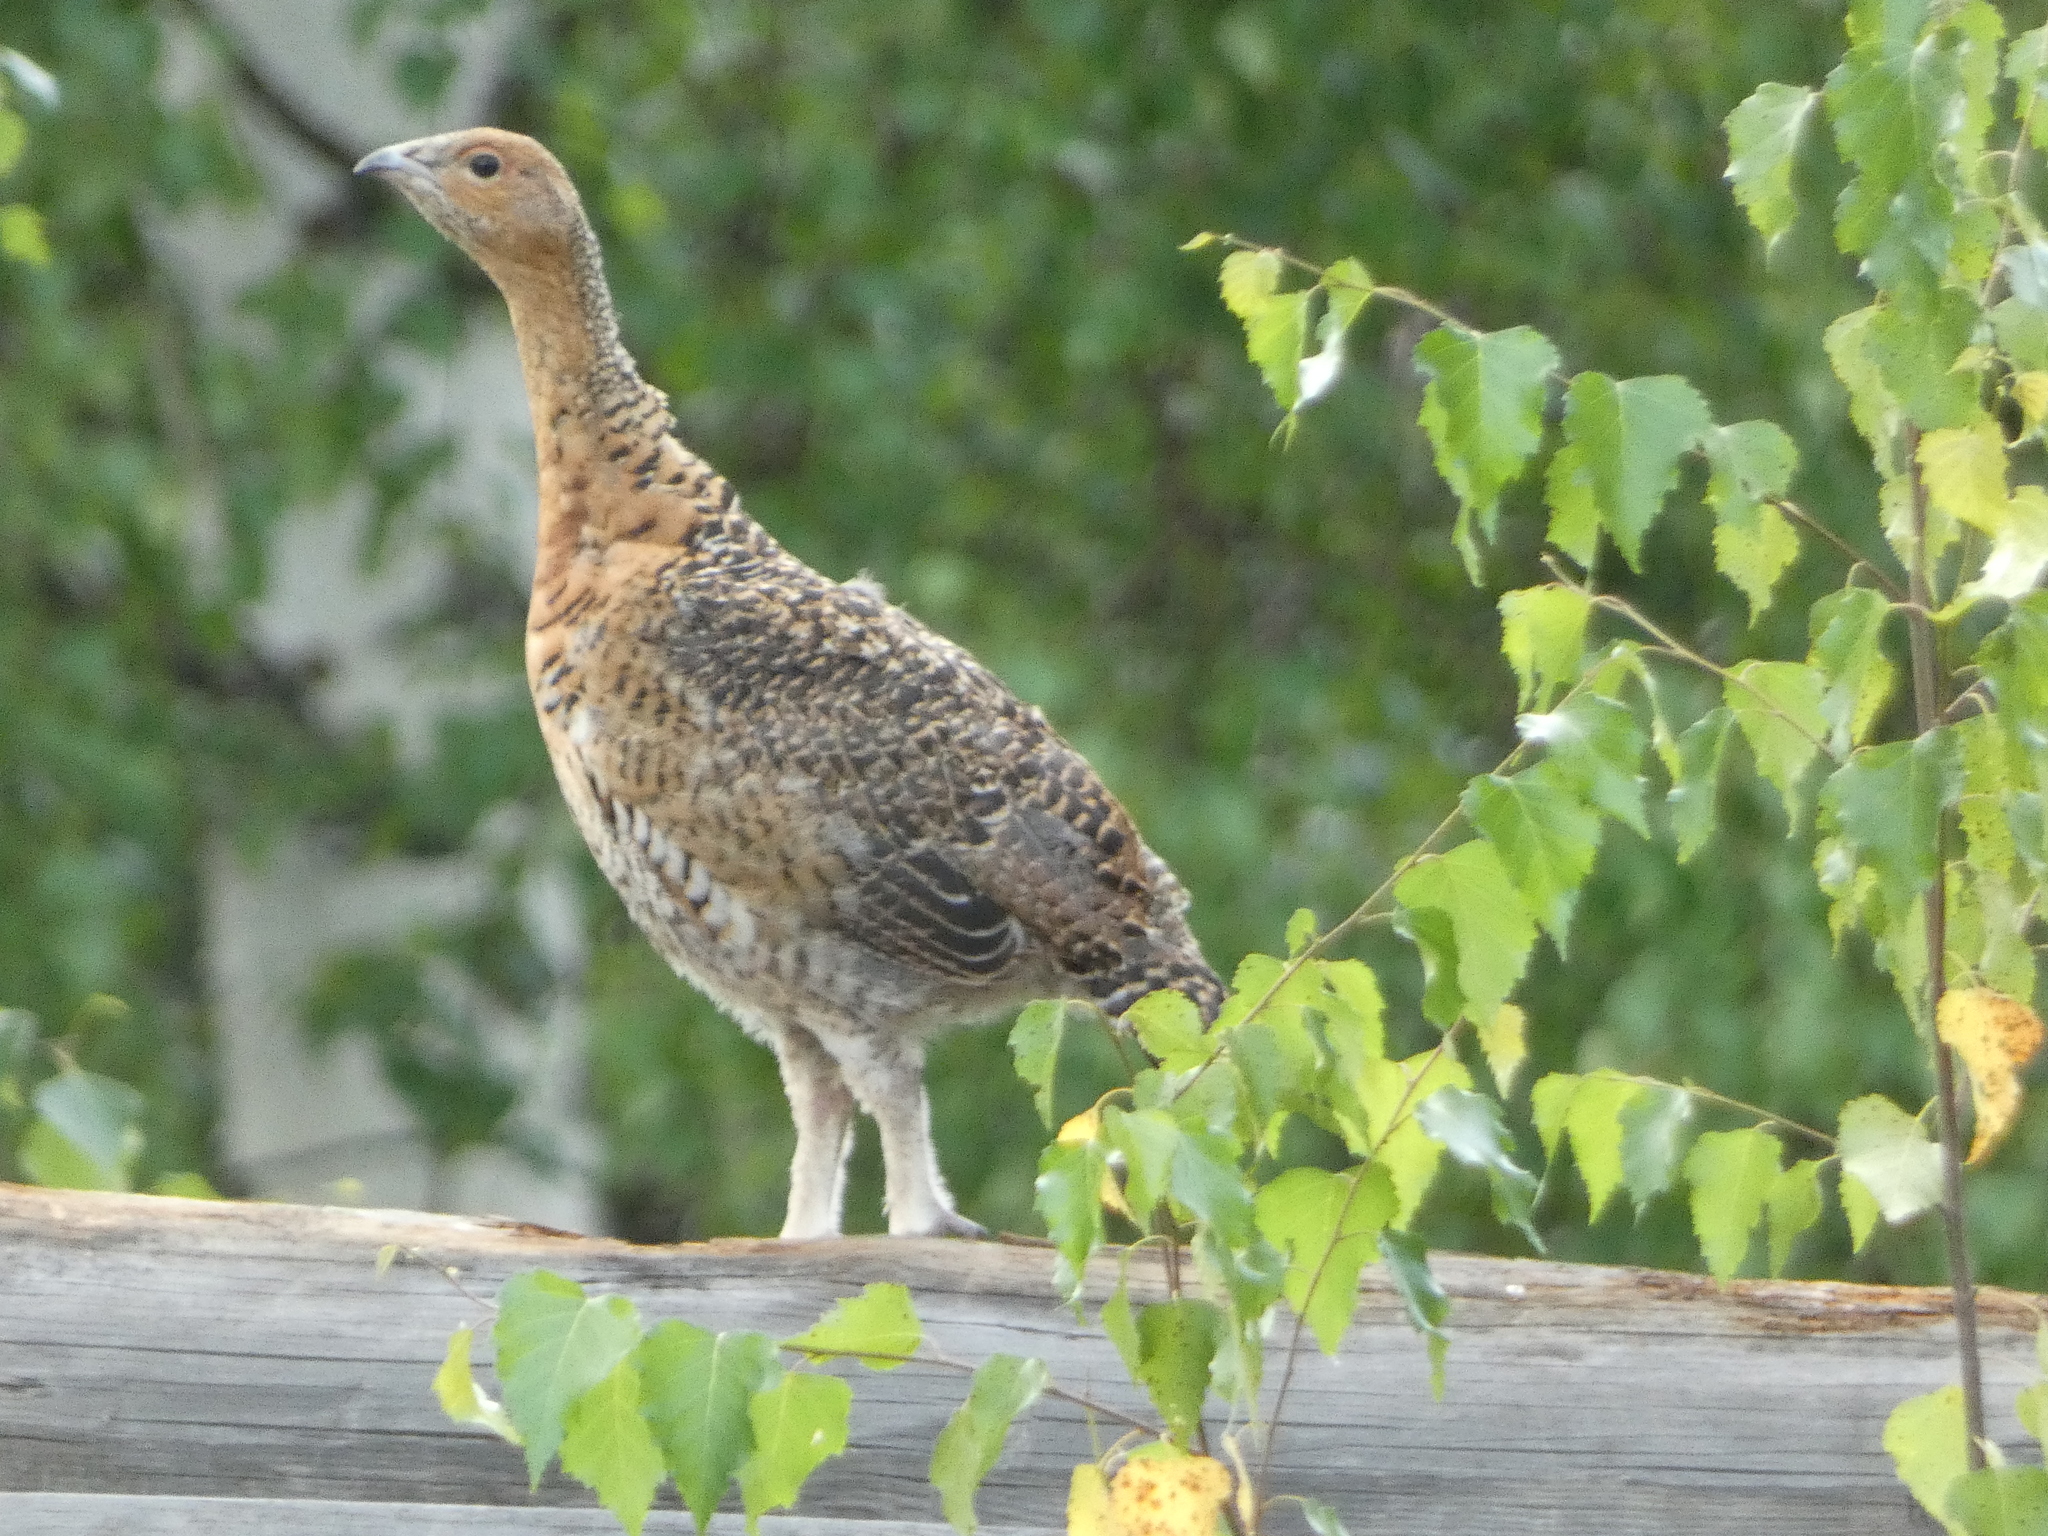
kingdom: Animalia
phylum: Chordata
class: Aves
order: Galliformes
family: Phasianidae
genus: Tetrao
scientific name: Tetrao urogallus
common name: Western capercaillie
